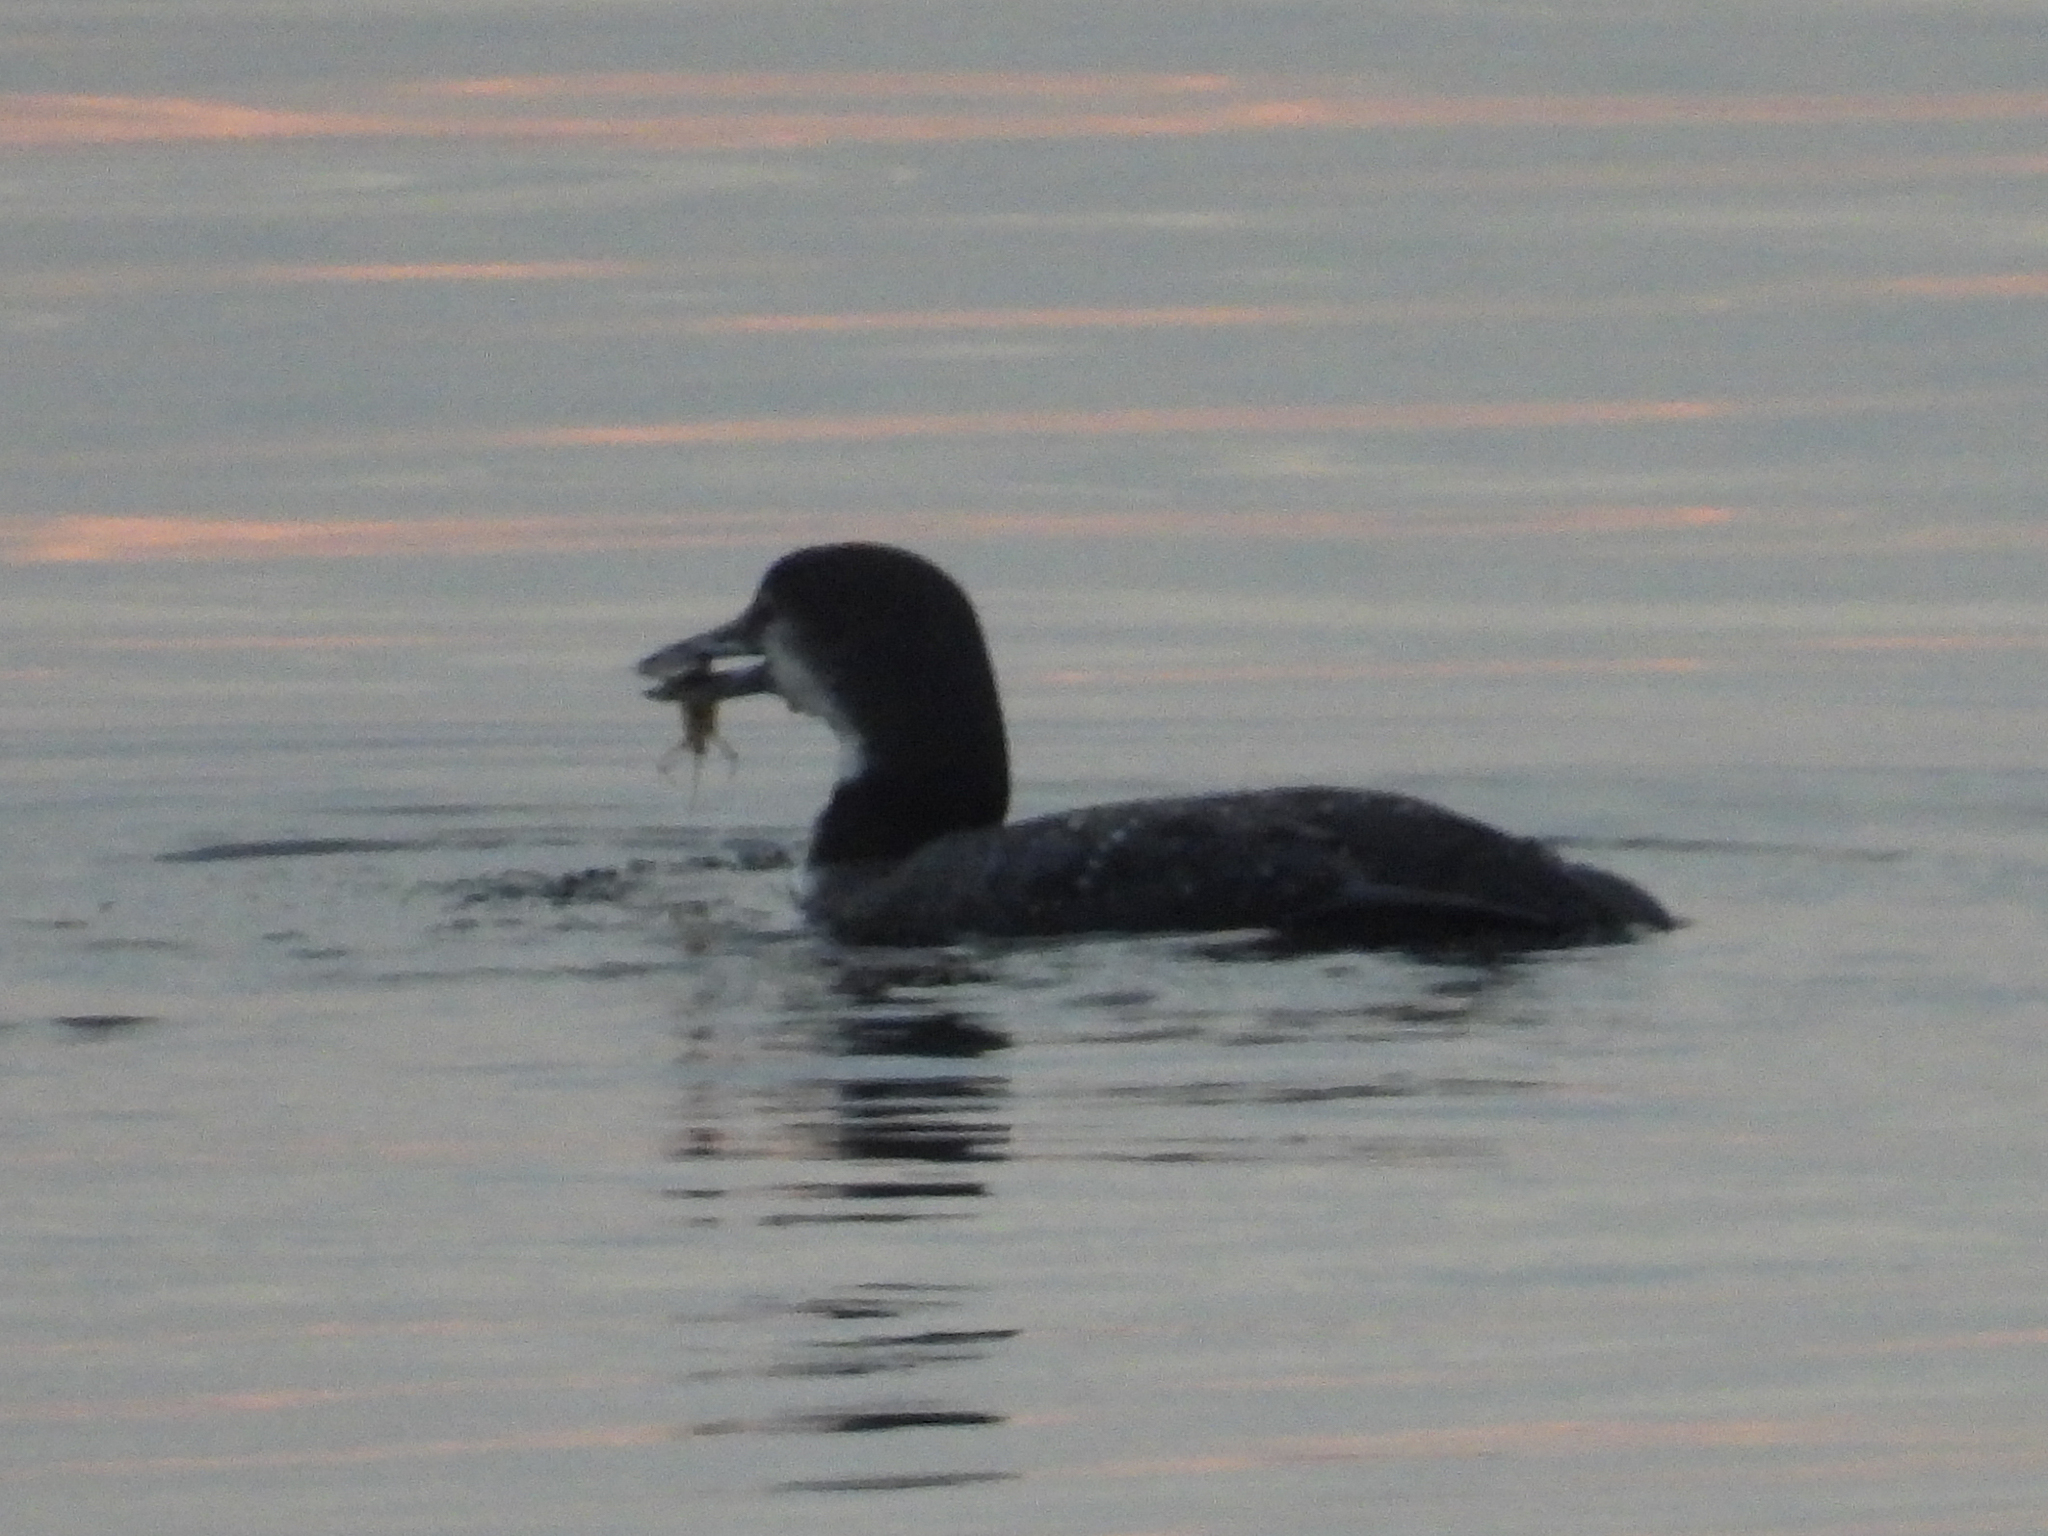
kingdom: Animalia
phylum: Chordata
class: Aves
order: Gaviiformes
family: Gaviidae
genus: Gavia
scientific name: Gavia immer
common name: Common loon
